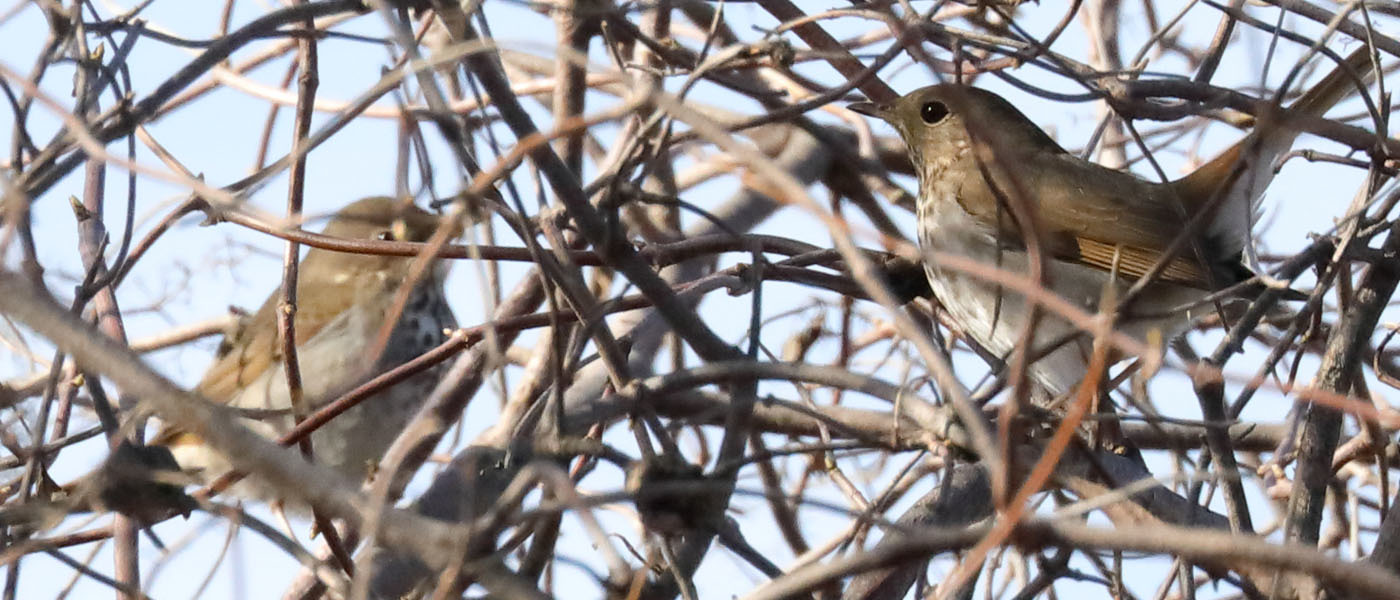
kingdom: Animalia
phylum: Chordata
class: Aves
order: Passeriformes
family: Turdidae
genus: Catharus
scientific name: Catharus guttatus
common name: Hermit thrush
